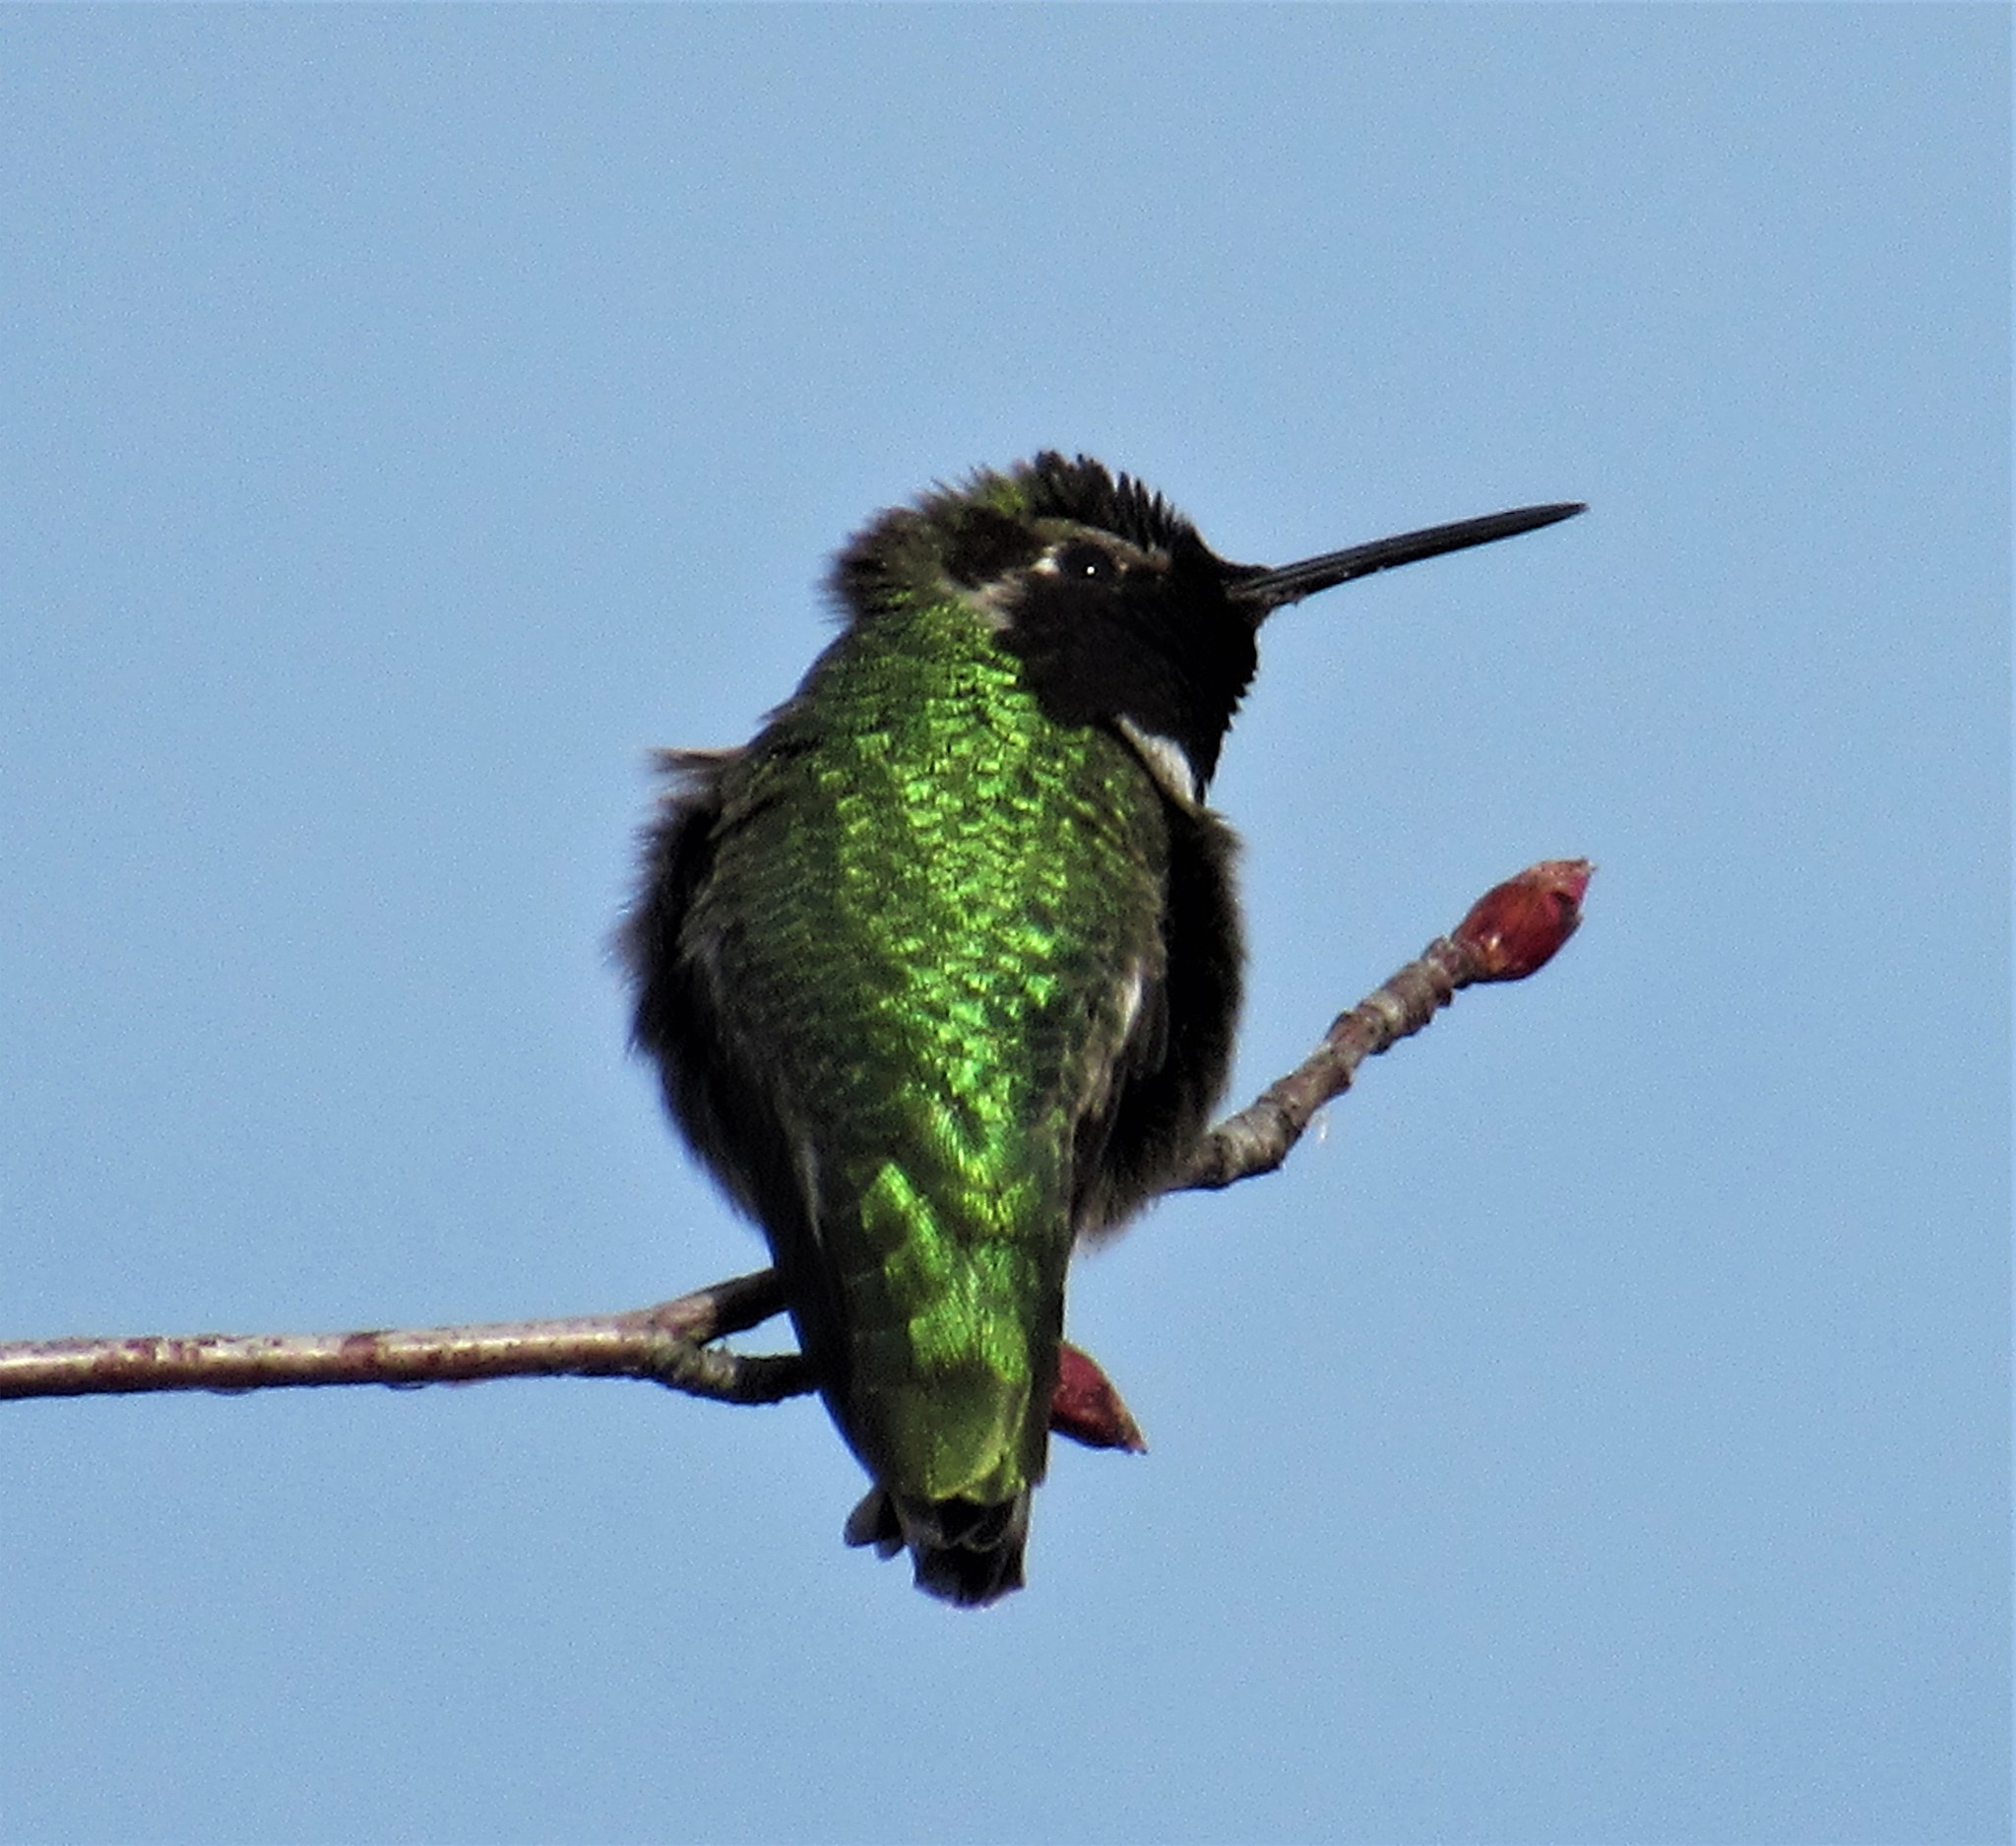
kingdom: Animalia
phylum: Chordata
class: Aves
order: Apodiformes
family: Trochilidae
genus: Calypte
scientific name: Calypte anna
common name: Anna's hummingbird
